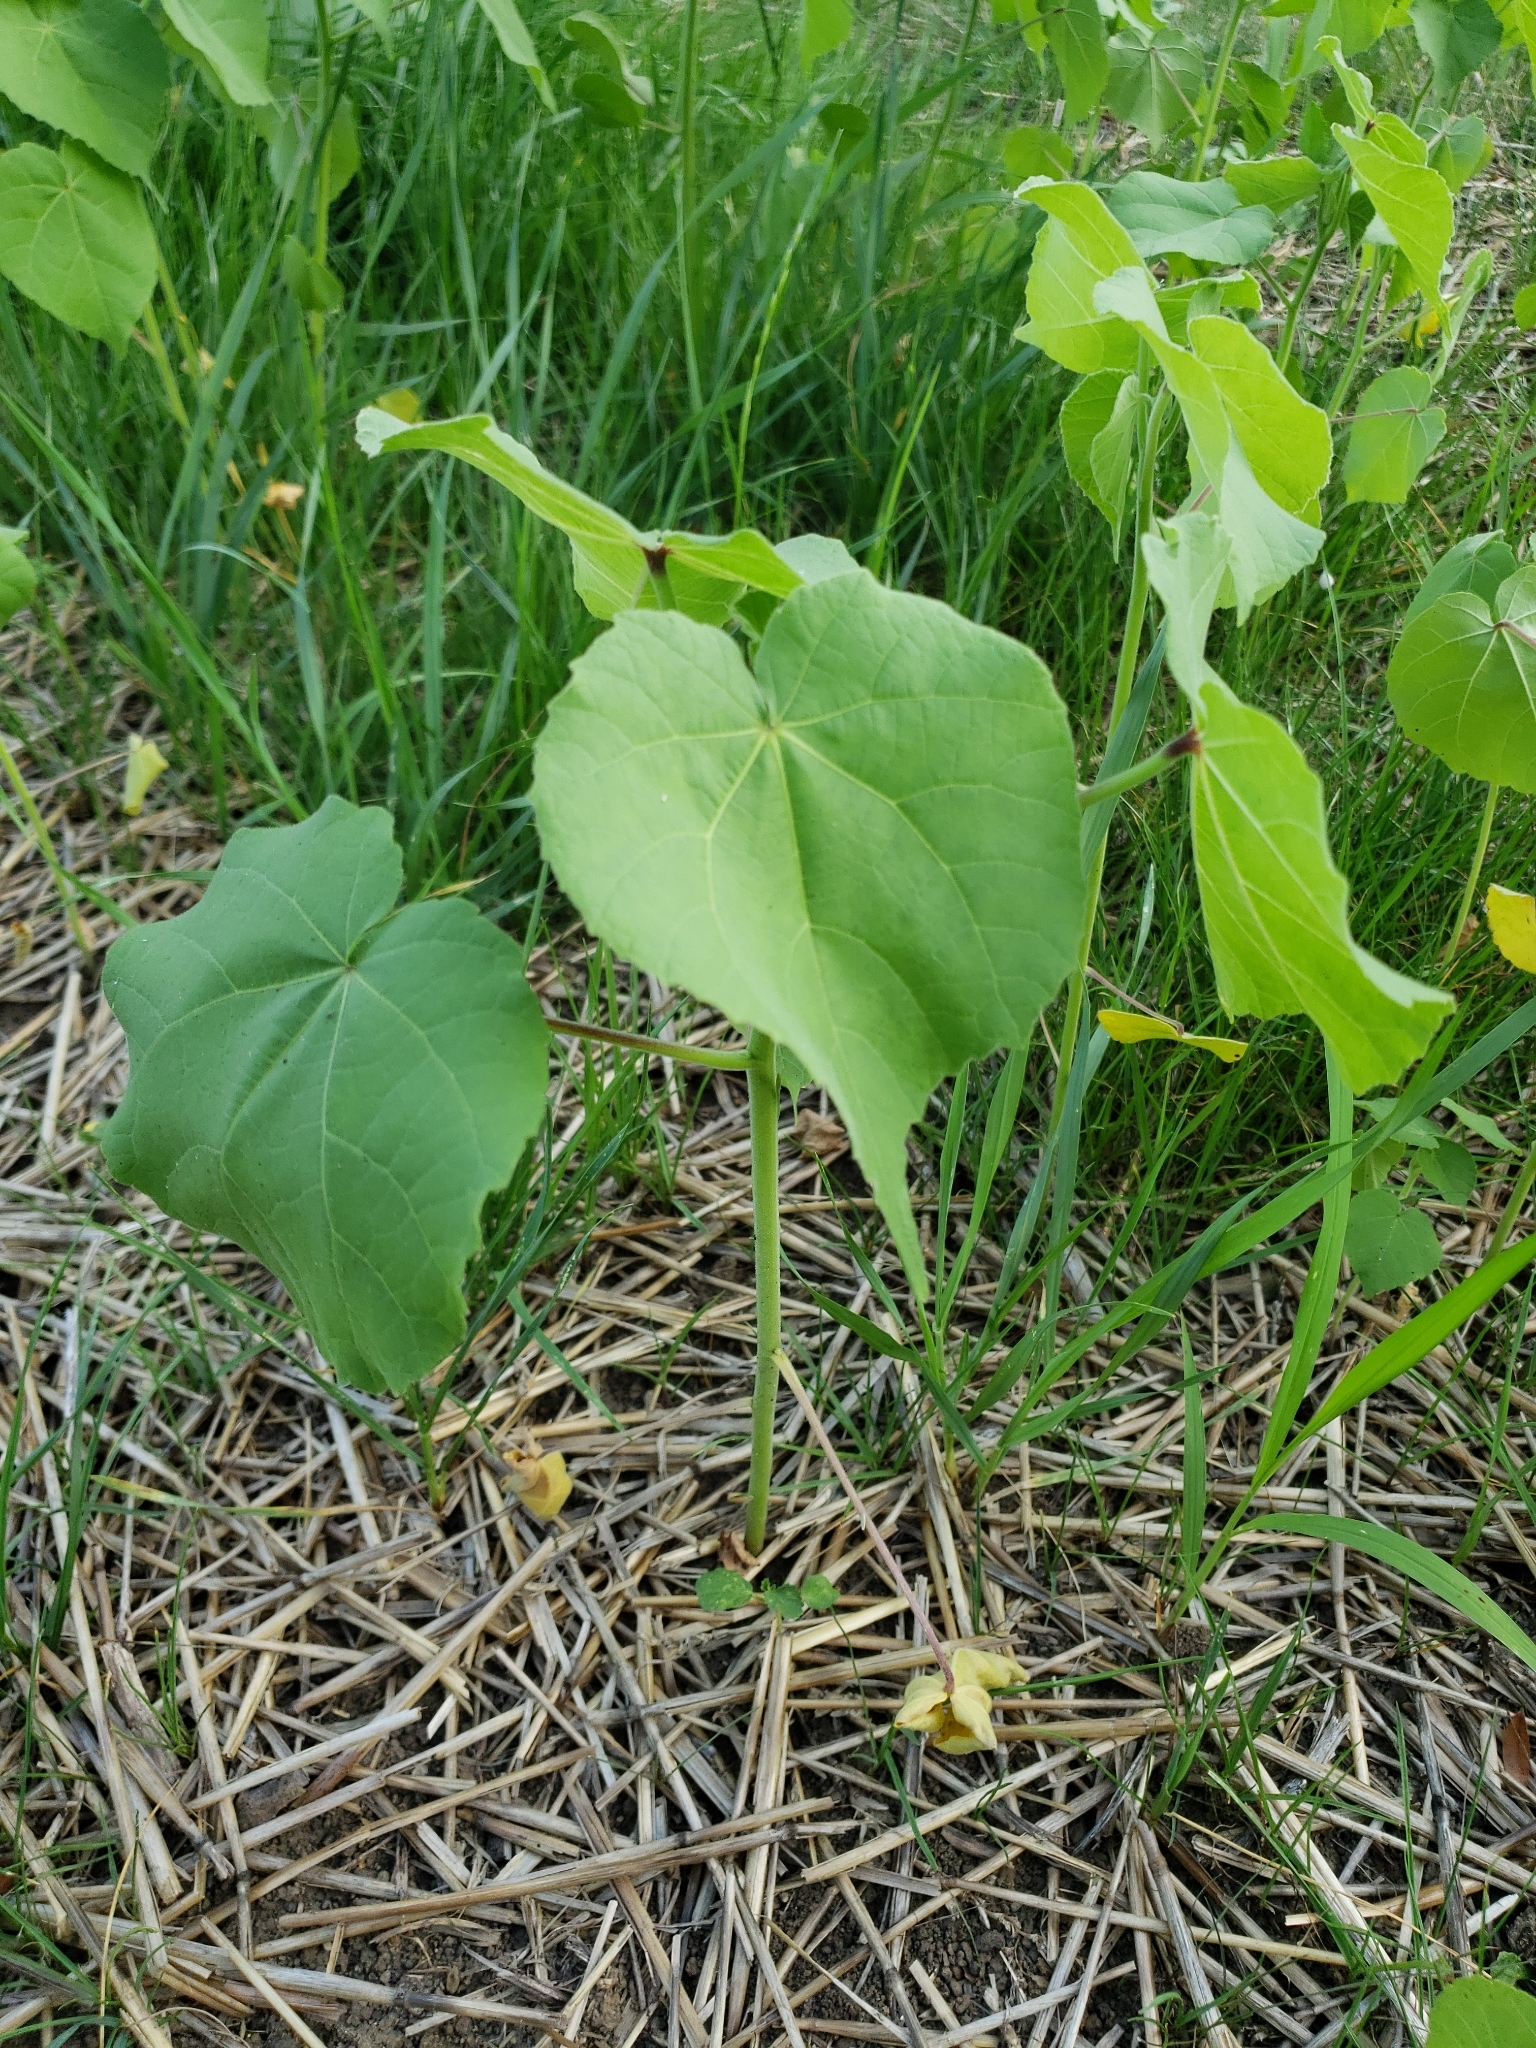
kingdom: Plantae
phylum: Tracheophyta
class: Magnoliopsida
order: Malvales
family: Malvaceae
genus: Abutilon
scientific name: Abutilon theophrasti
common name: Velvetleaf
